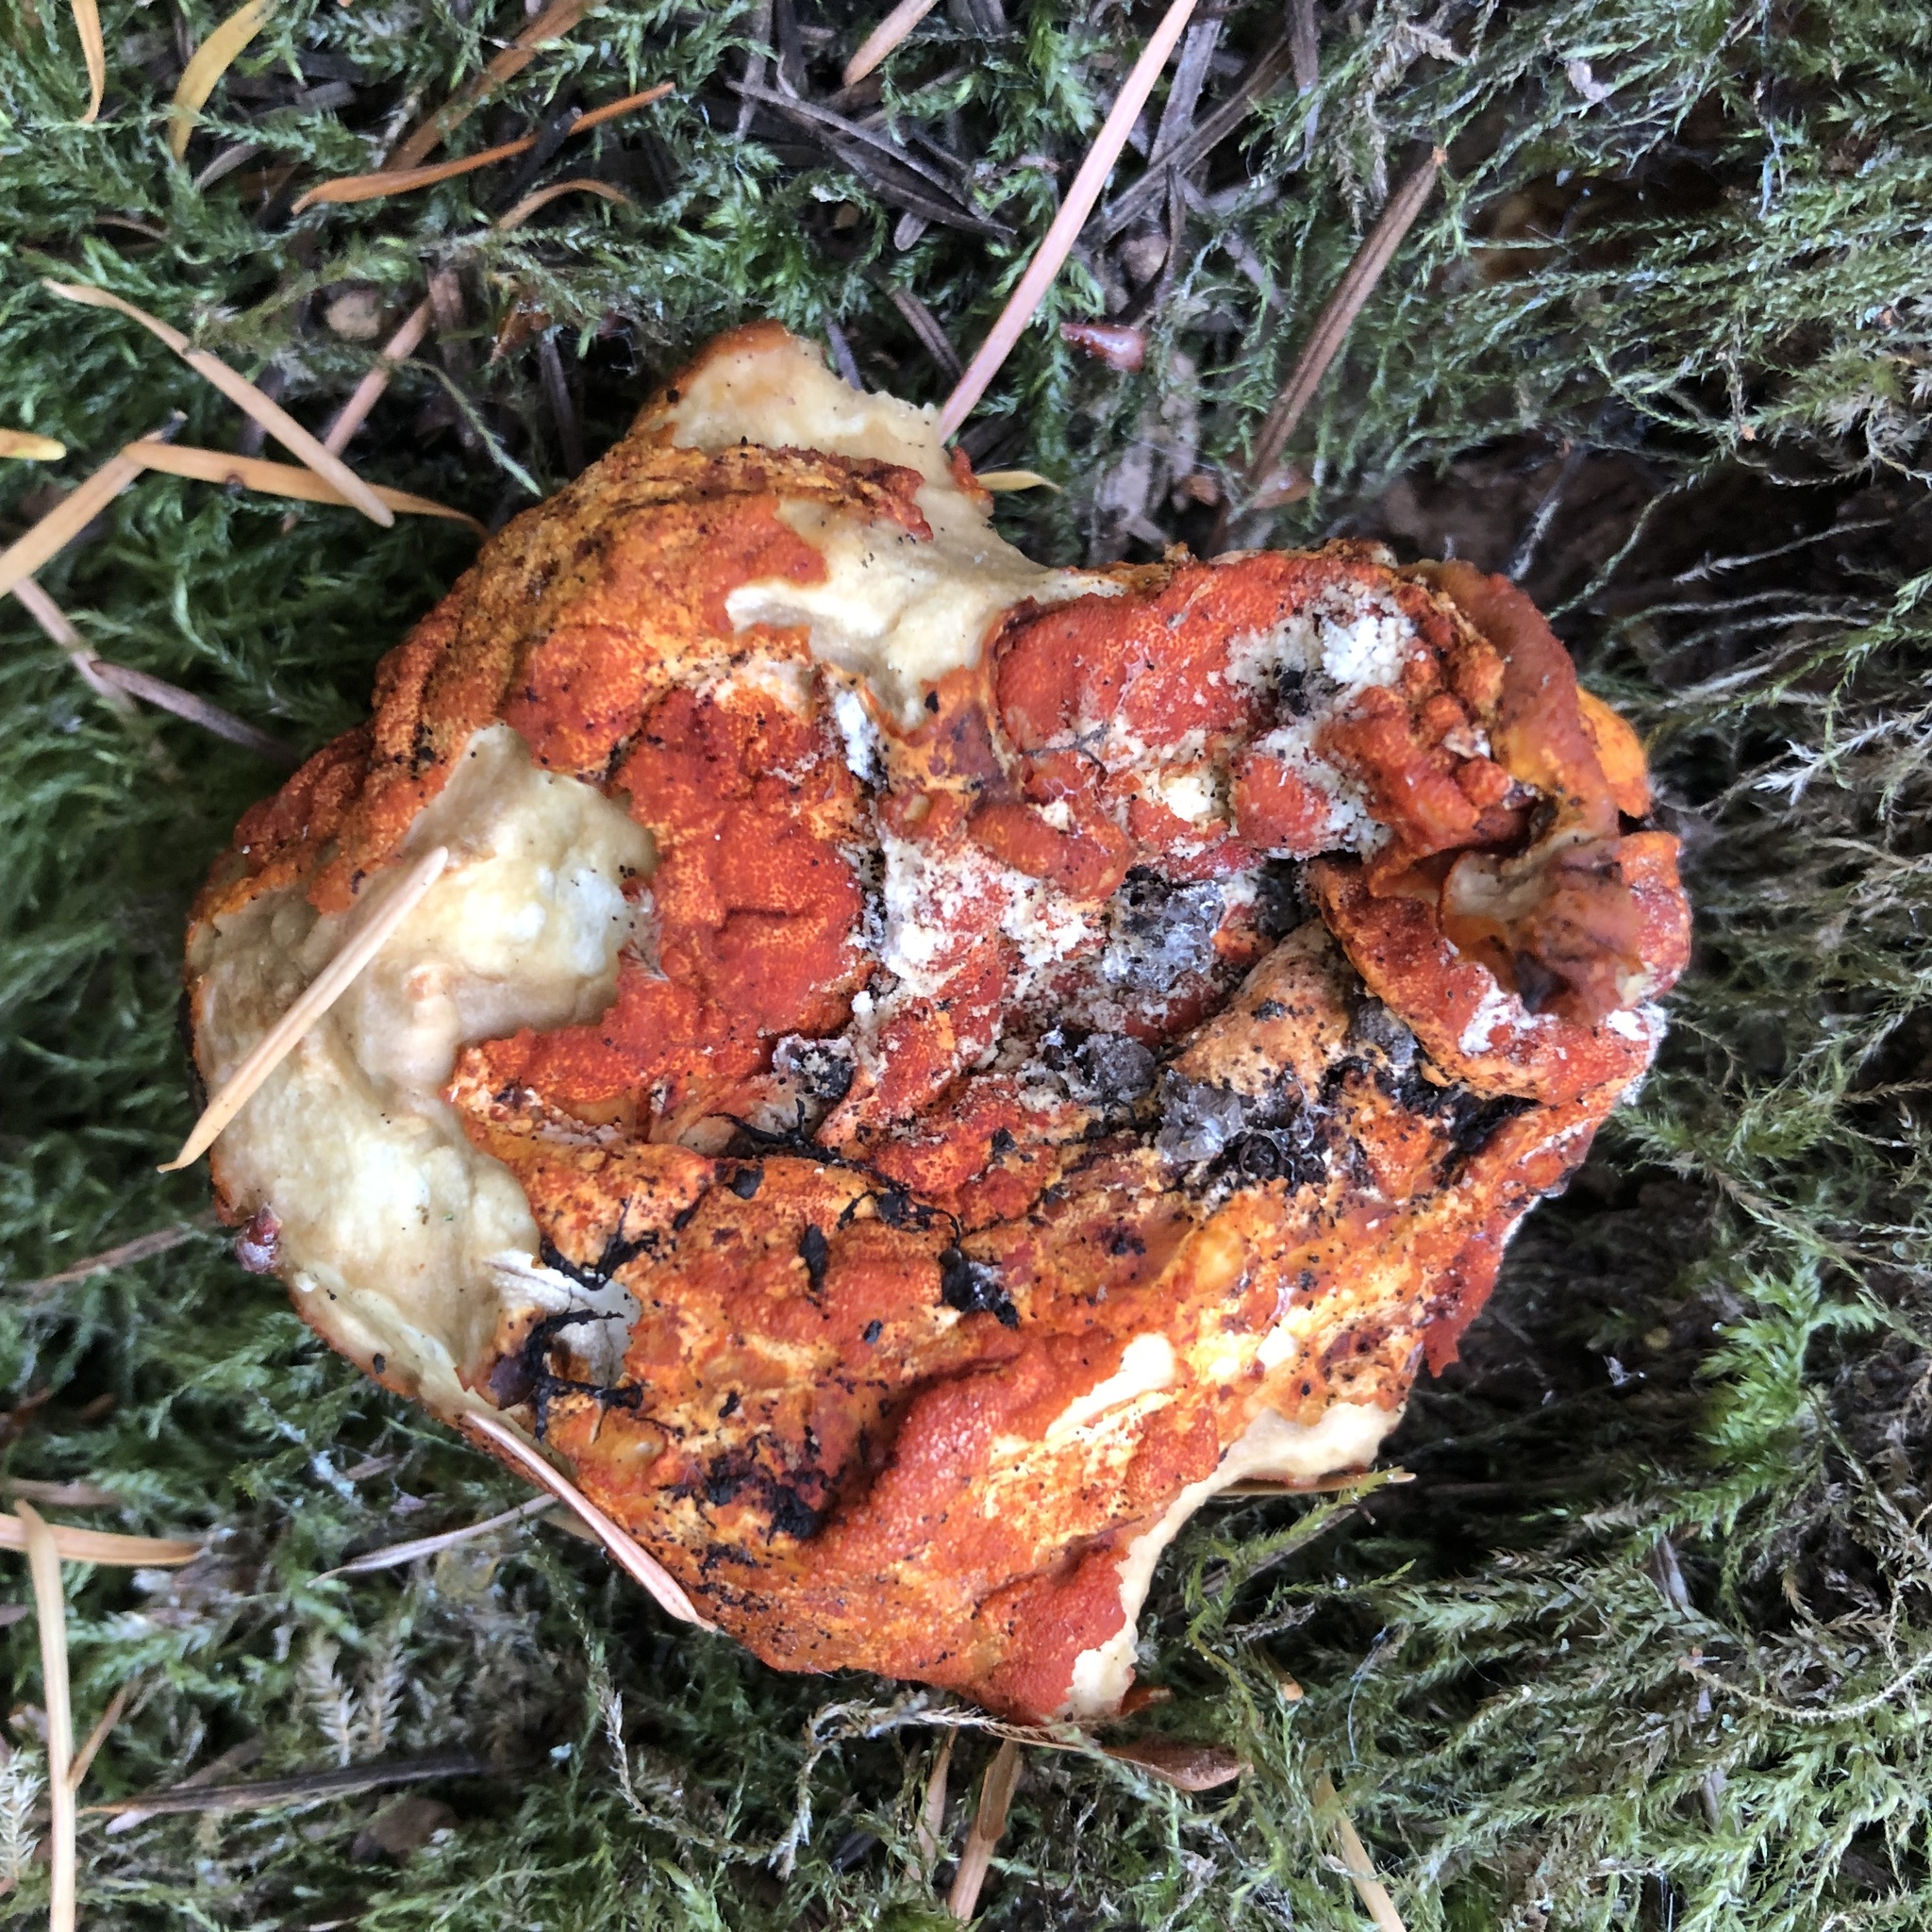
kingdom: Fungi
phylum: Ascomycota
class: Sordariomycetes
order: Hypocreales
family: Hypocreaceae
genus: Hypomyces
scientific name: Hypomyces lactifluorum
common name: Lobster mushroom
